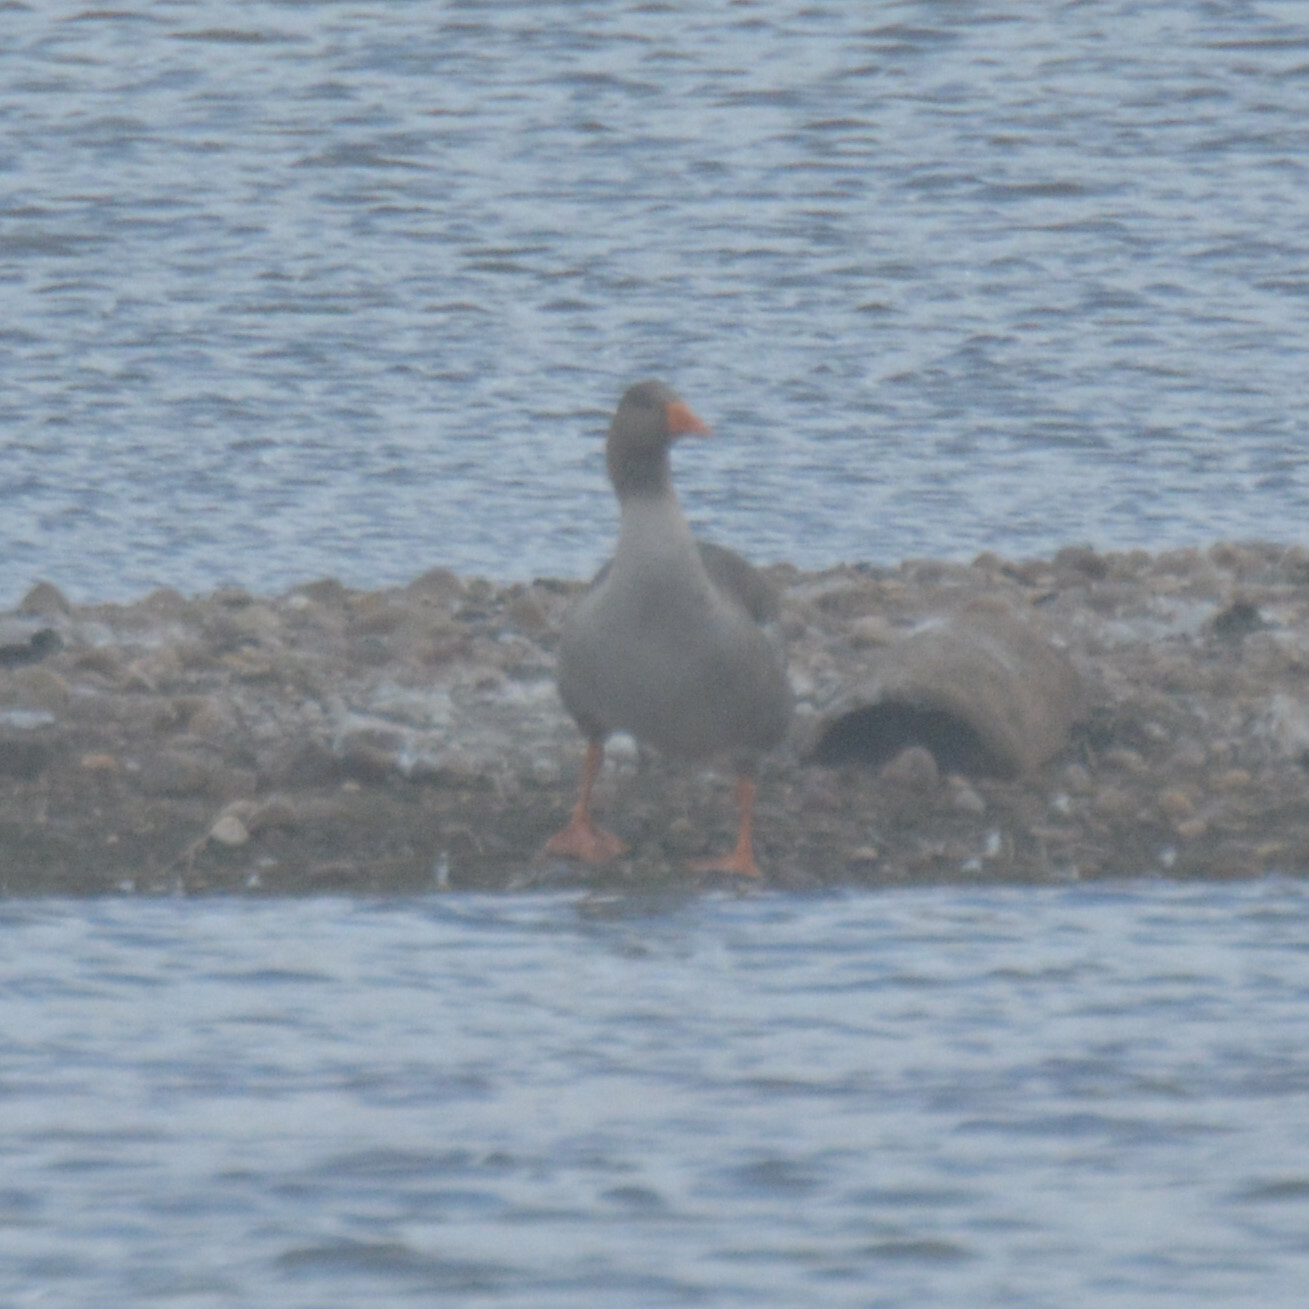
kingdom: Animalia
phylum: Chordata
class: Aves
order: Anseriformes
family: Anatidae
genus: Anser
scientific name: Anser anser
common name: Greylag goose
